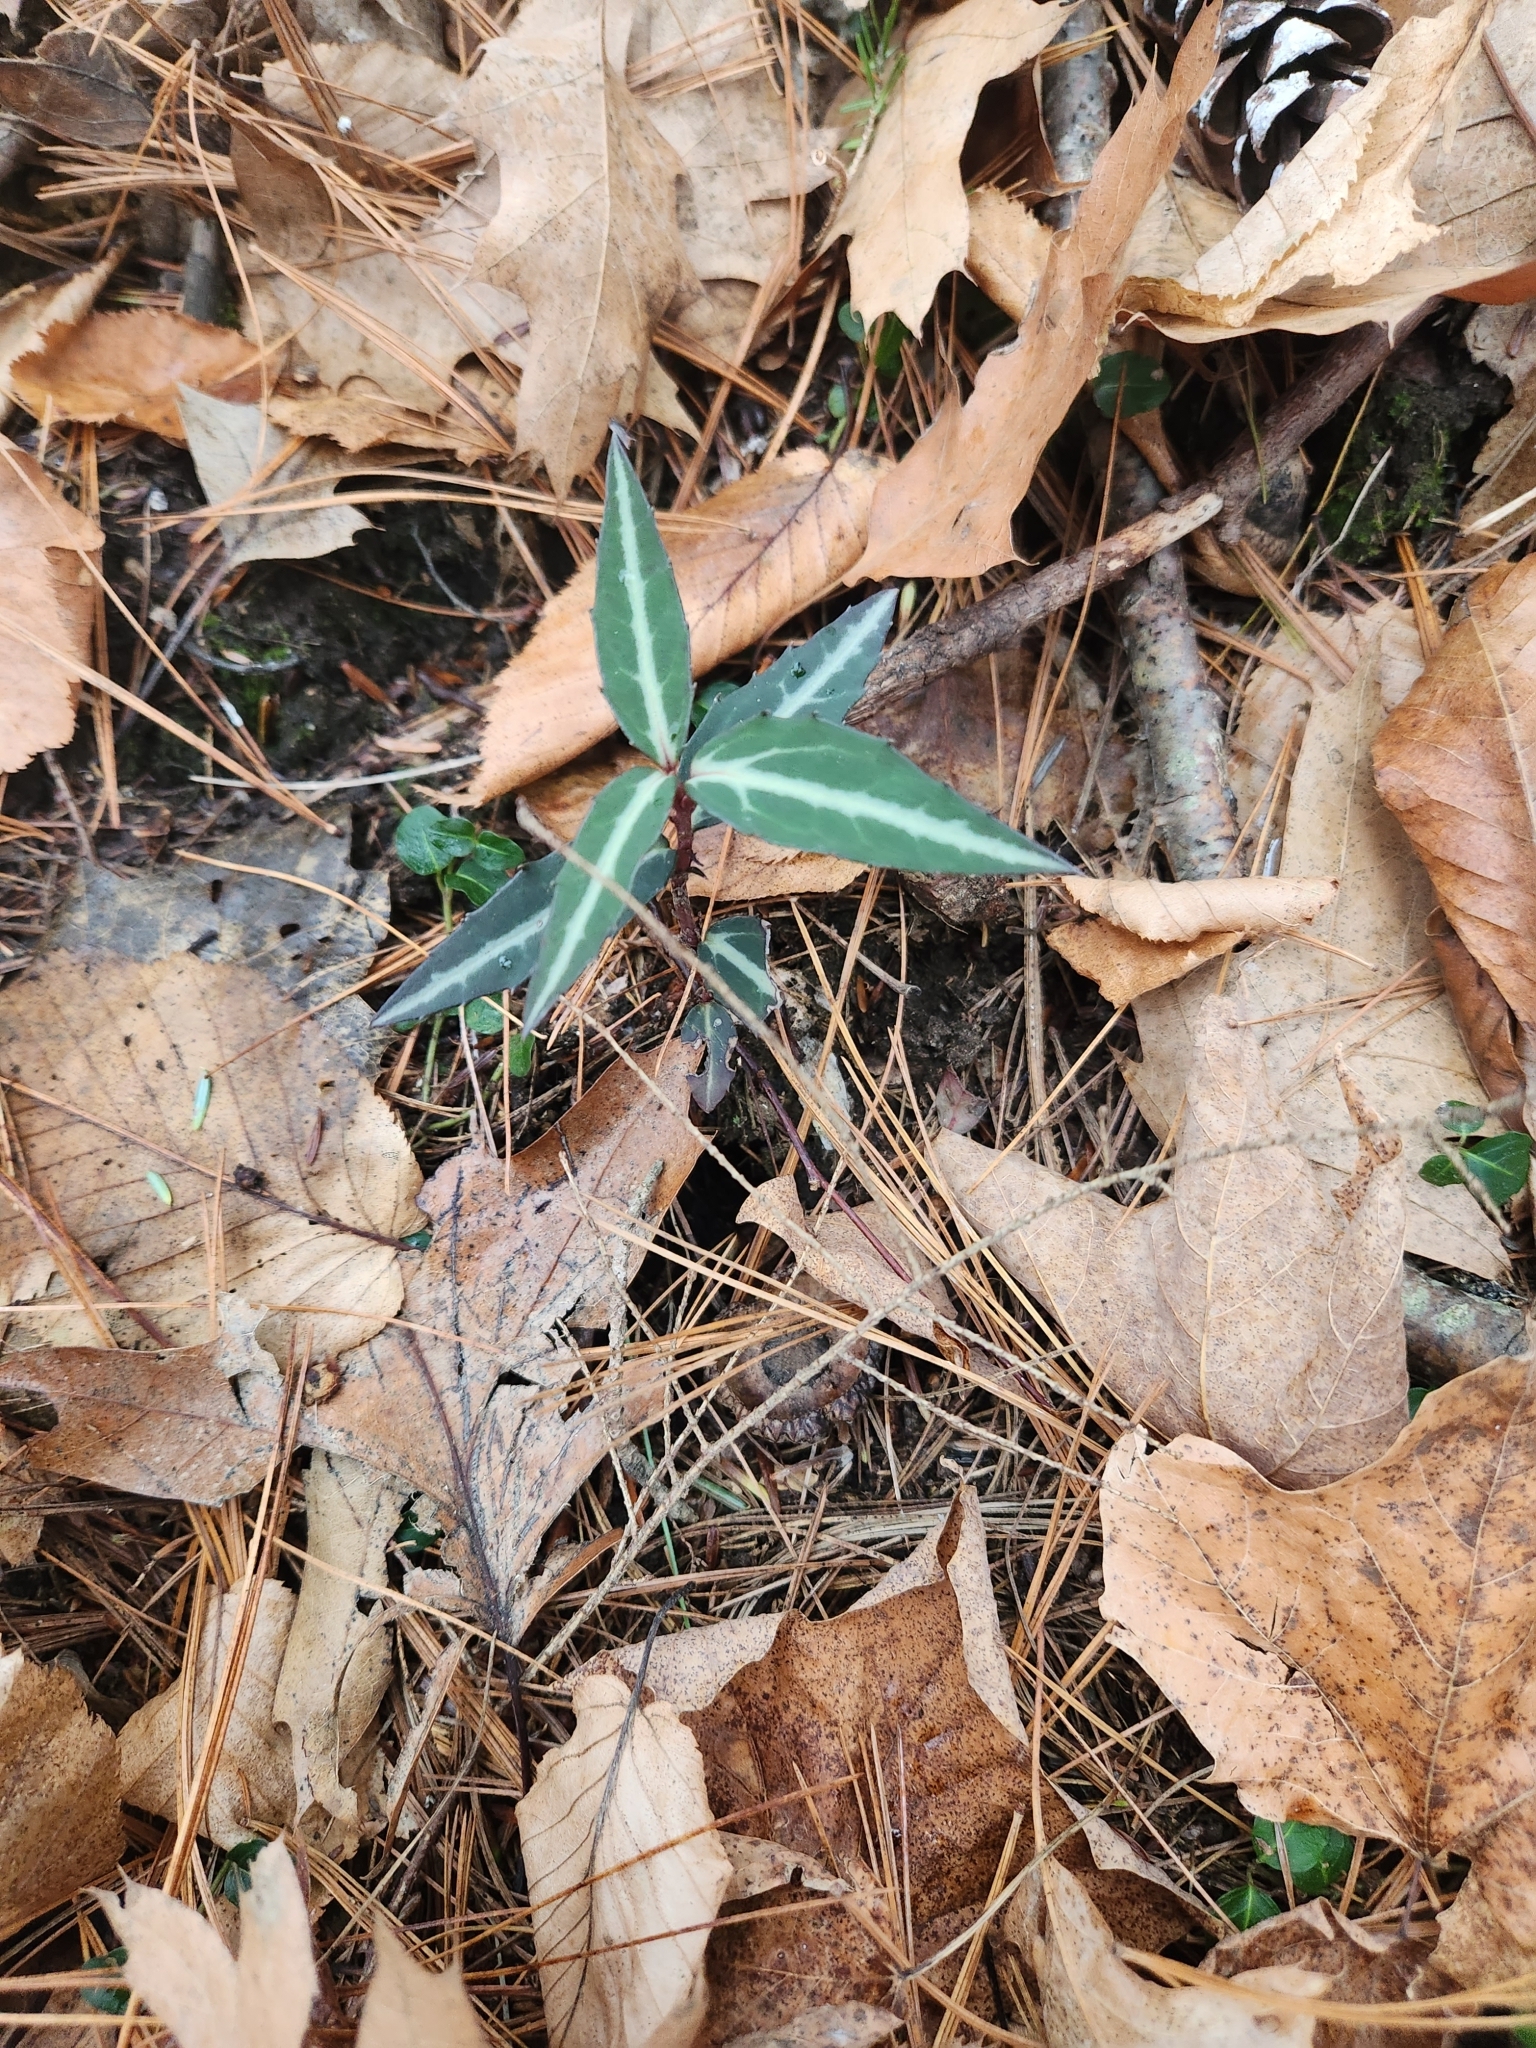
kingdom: Plantae
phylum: Tracheophyta
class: Magnoliopsida
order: Ericales
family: Ericaceae
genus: Chimaphila
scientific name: Chimaphila maculata
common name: Spotted pipsissewa
